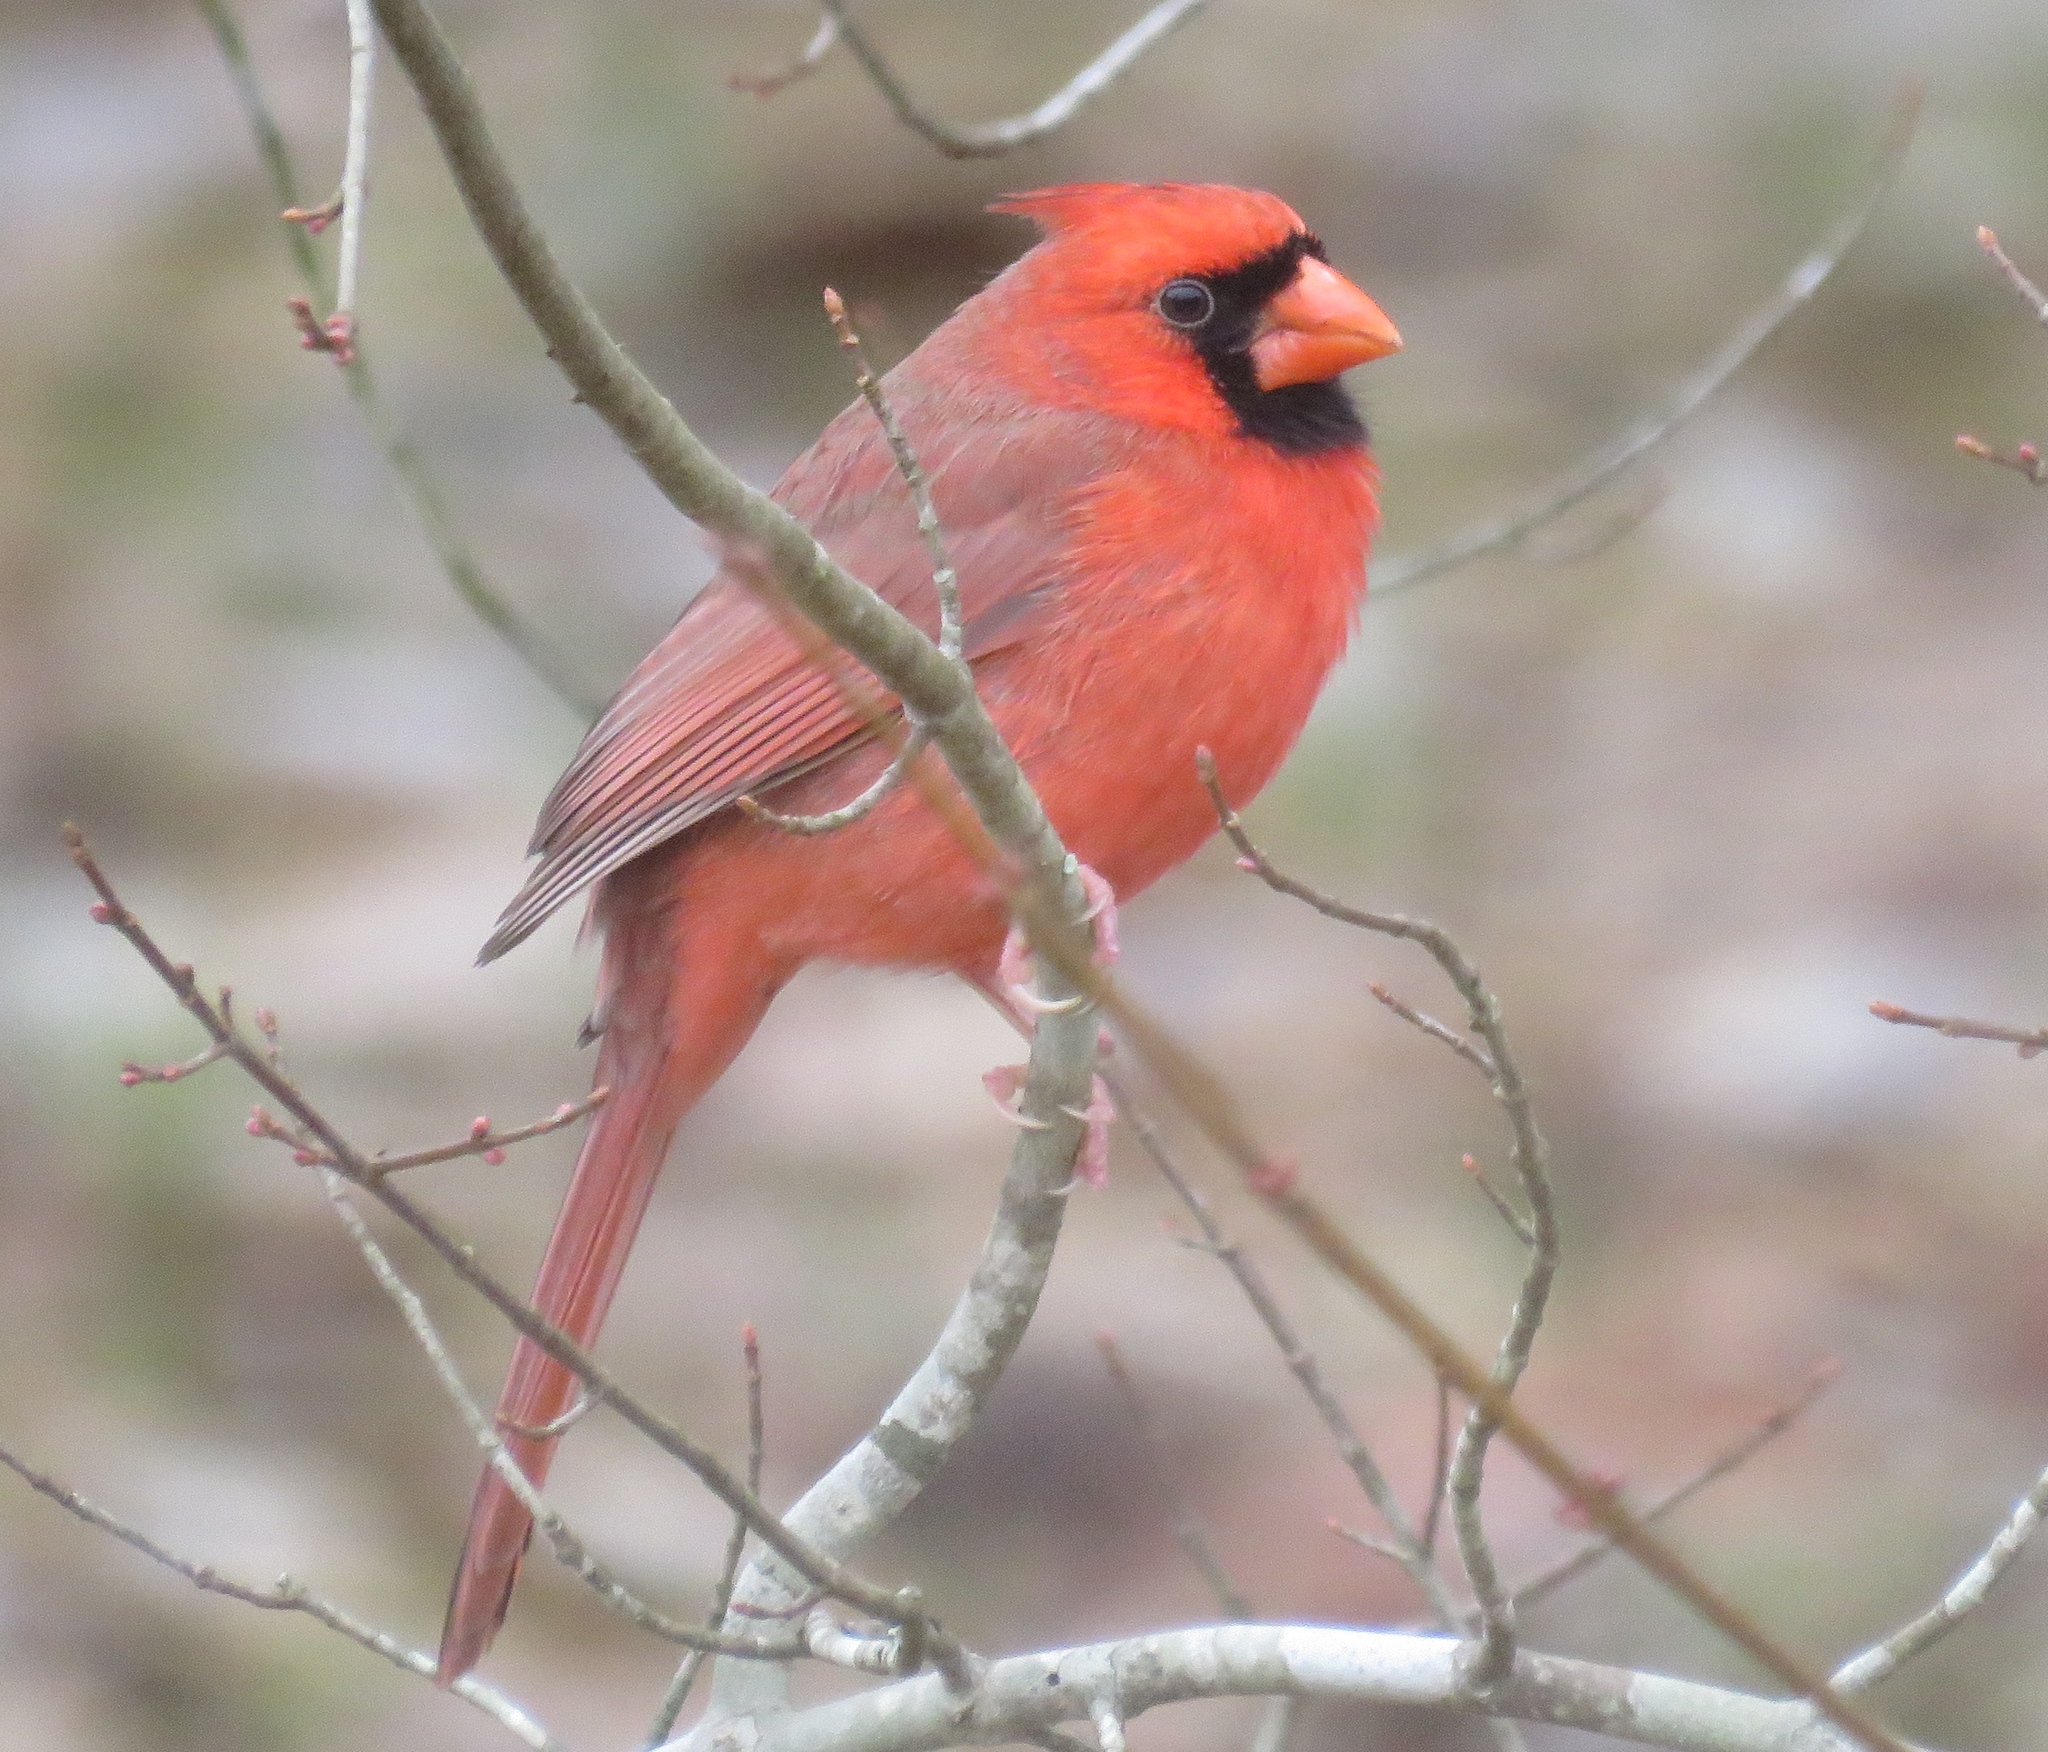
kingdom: Animalia
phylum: Chordata
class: Aves
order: Passeriformes
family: Cardinalidae
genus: Cardinalis
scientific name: Cardinalis cardinalis
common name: Northern cardinal
